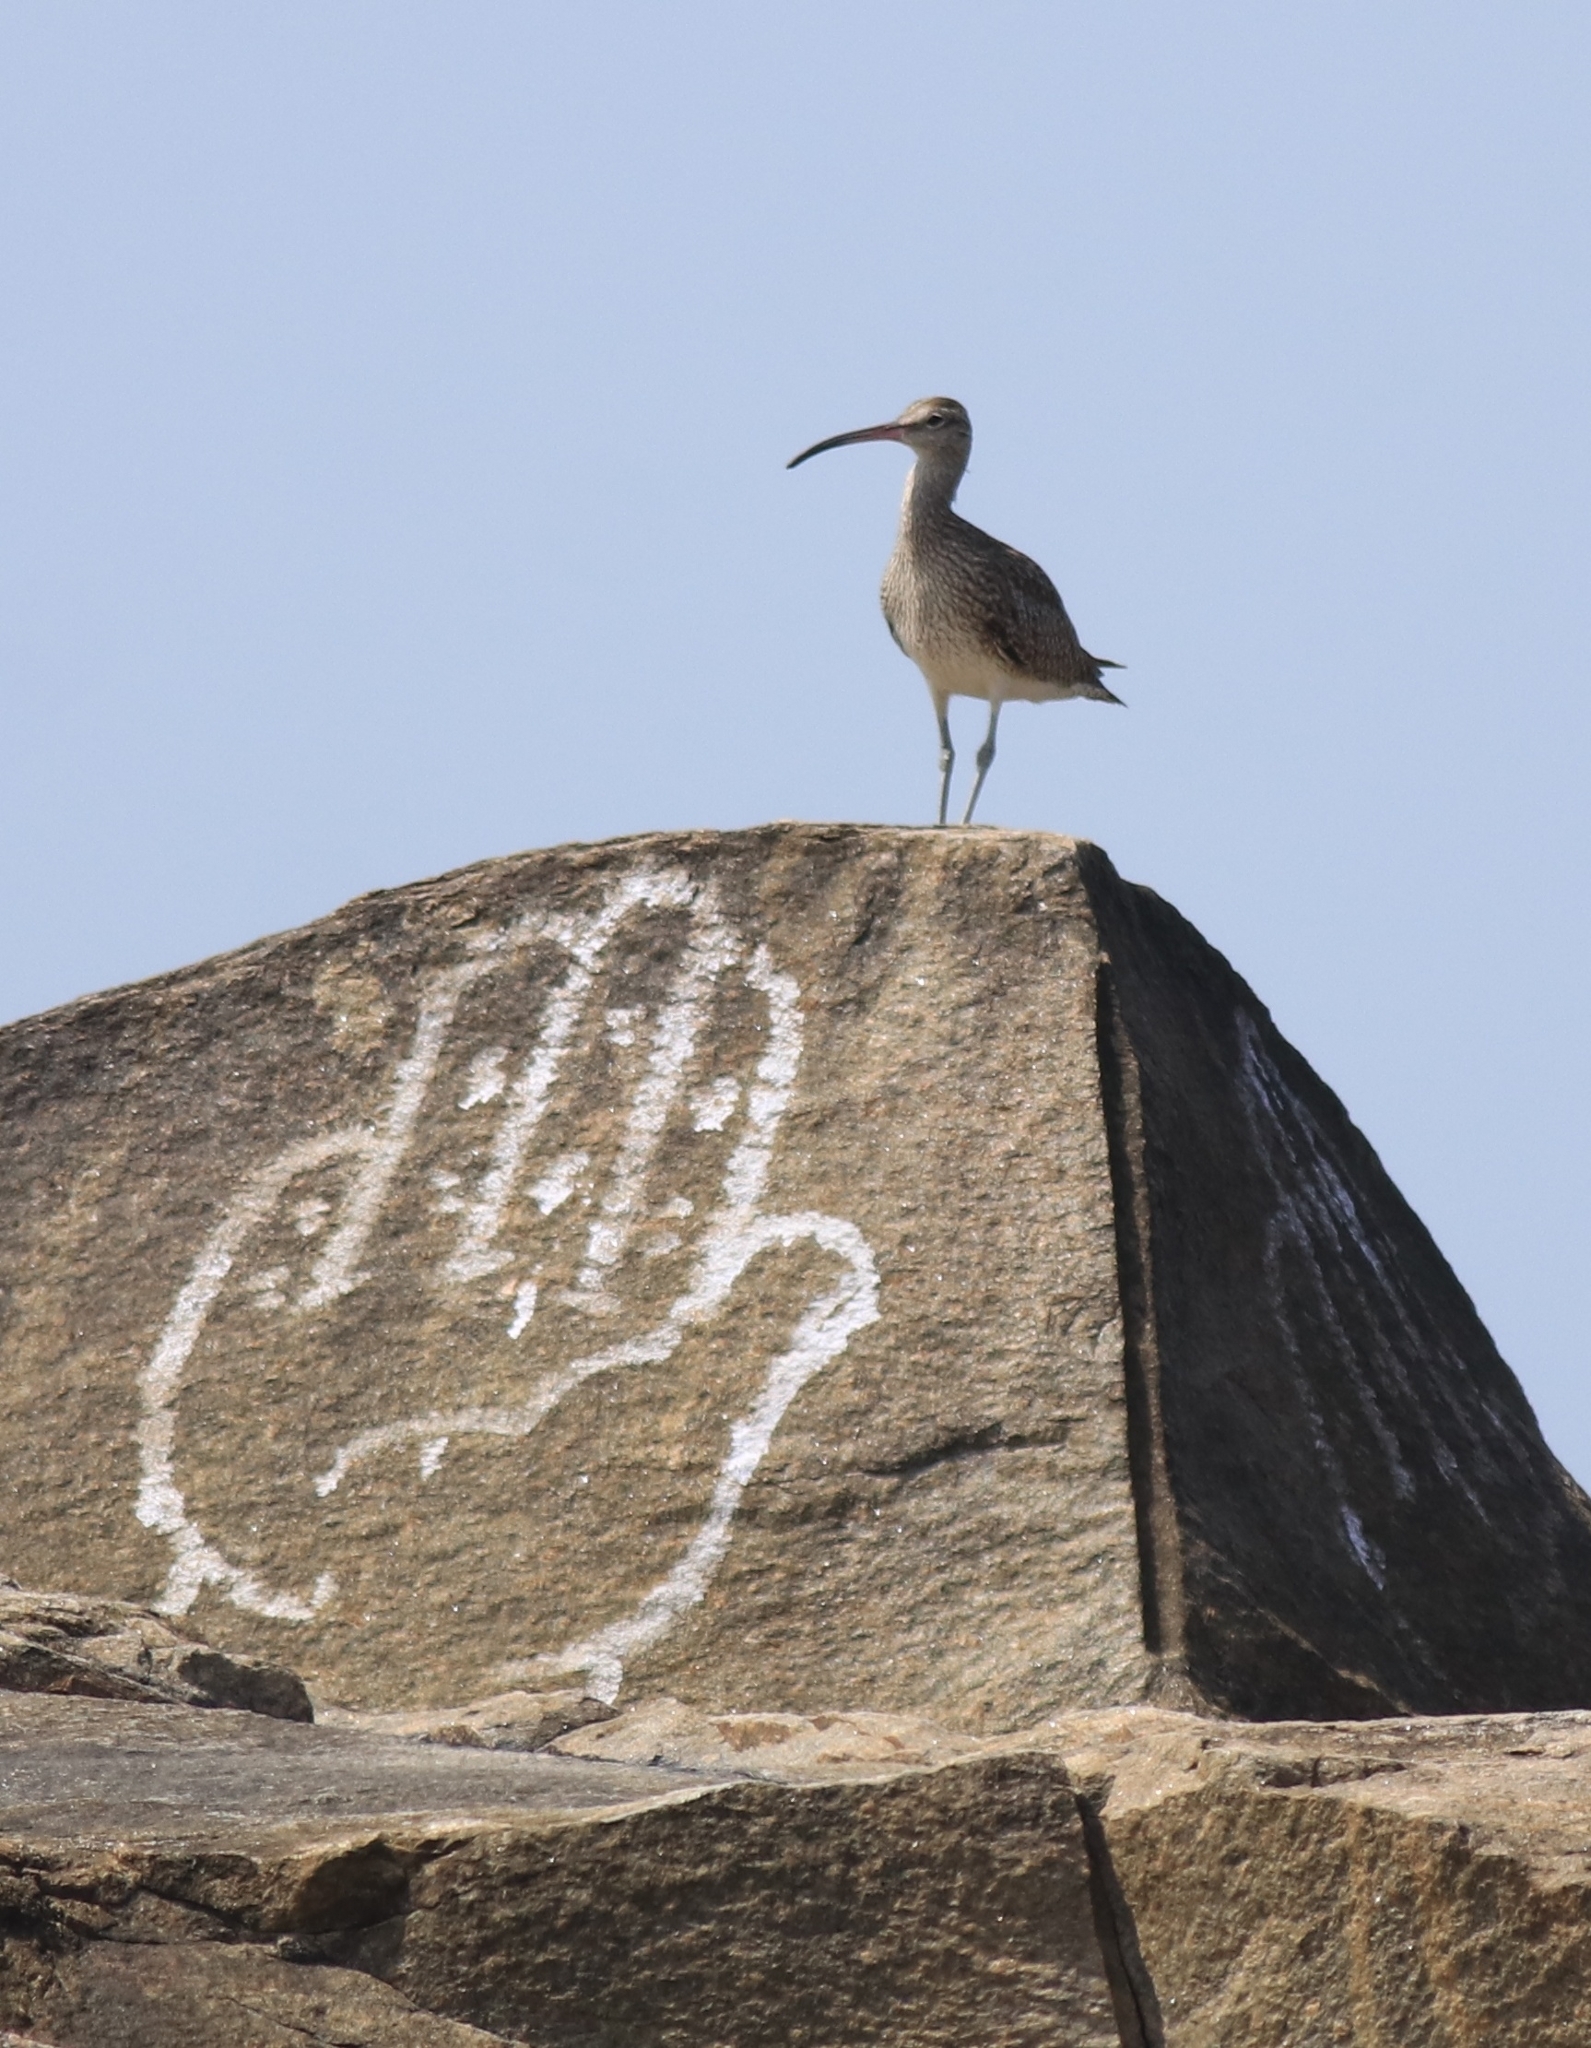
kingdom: Animalia
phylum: Chordata
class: Aves
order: Charadriiformes
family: Scolopacidae
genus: Numenius
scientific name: Numenius phaeopus
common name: Whimbrel
